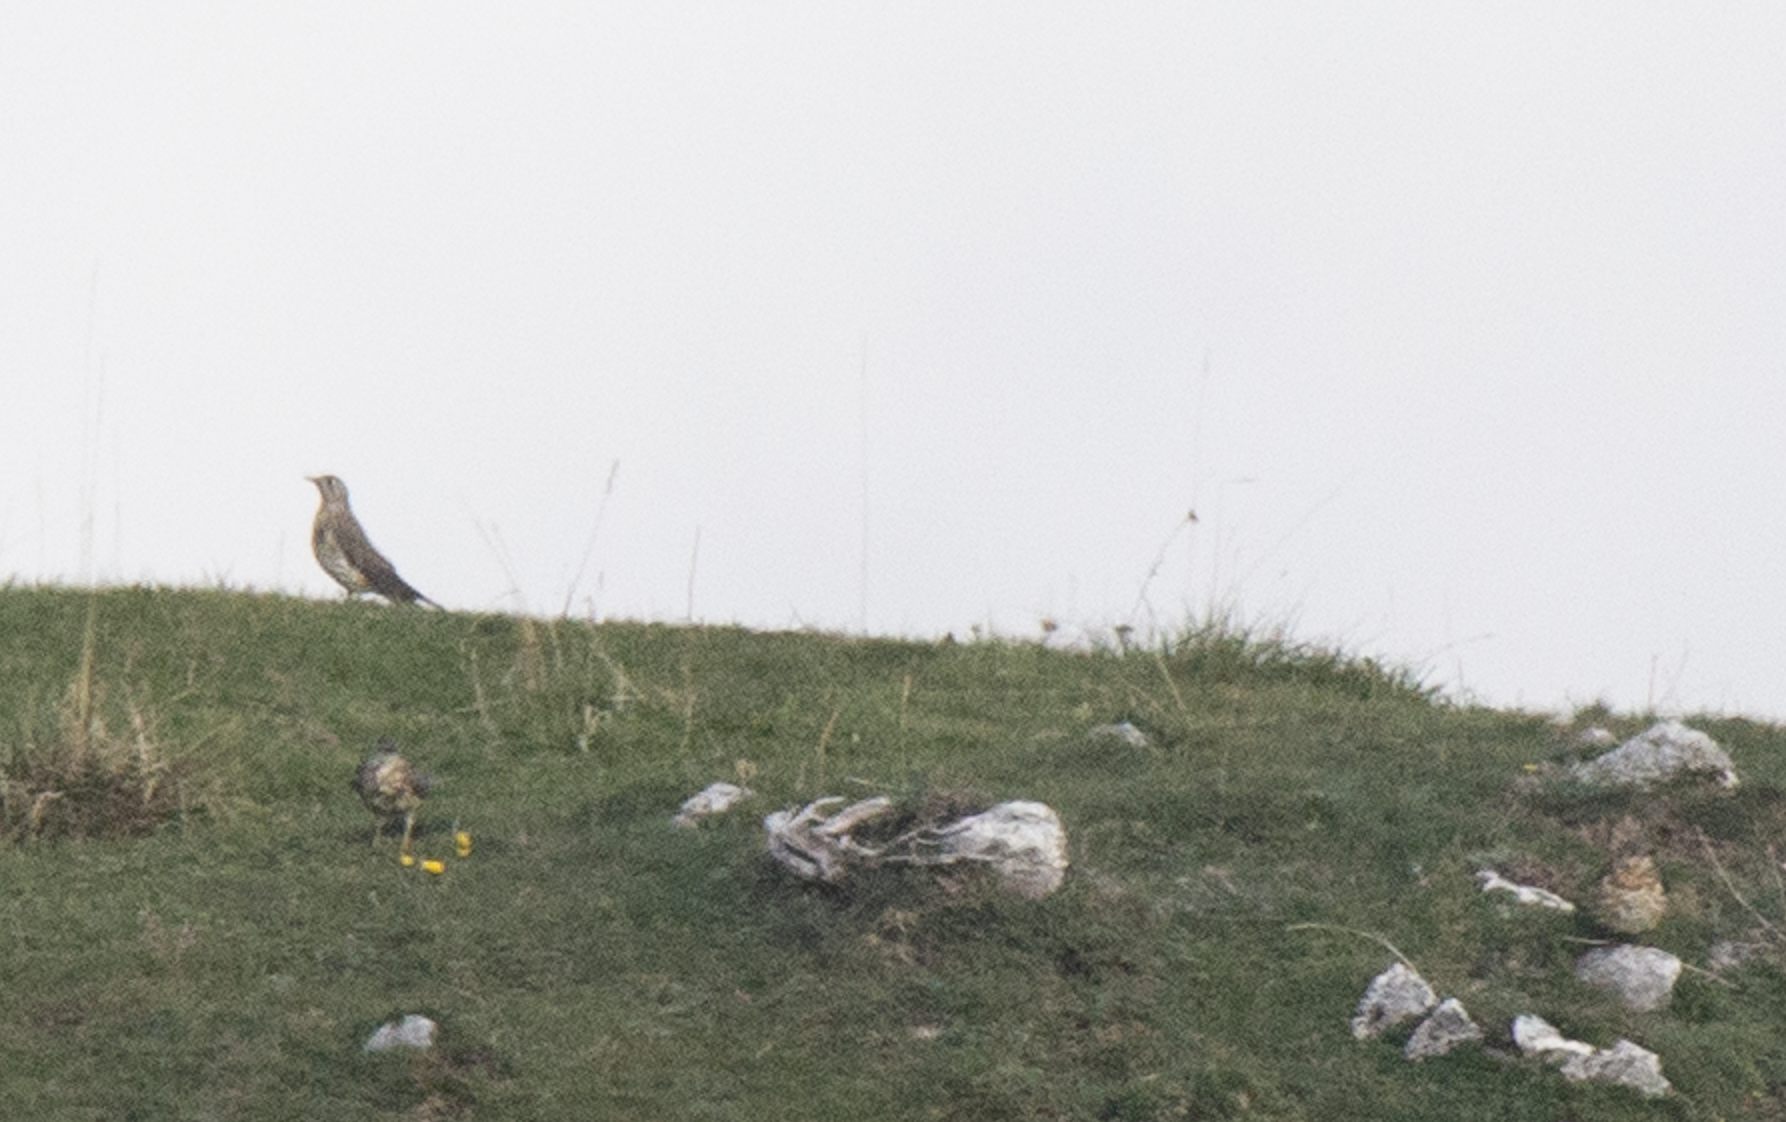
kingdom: Animalia
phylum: Chordata
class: Aves
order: Passeriformes
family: Turdidae
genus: Turdus
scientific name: Turdus viscivorus
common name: Mistle thrush
